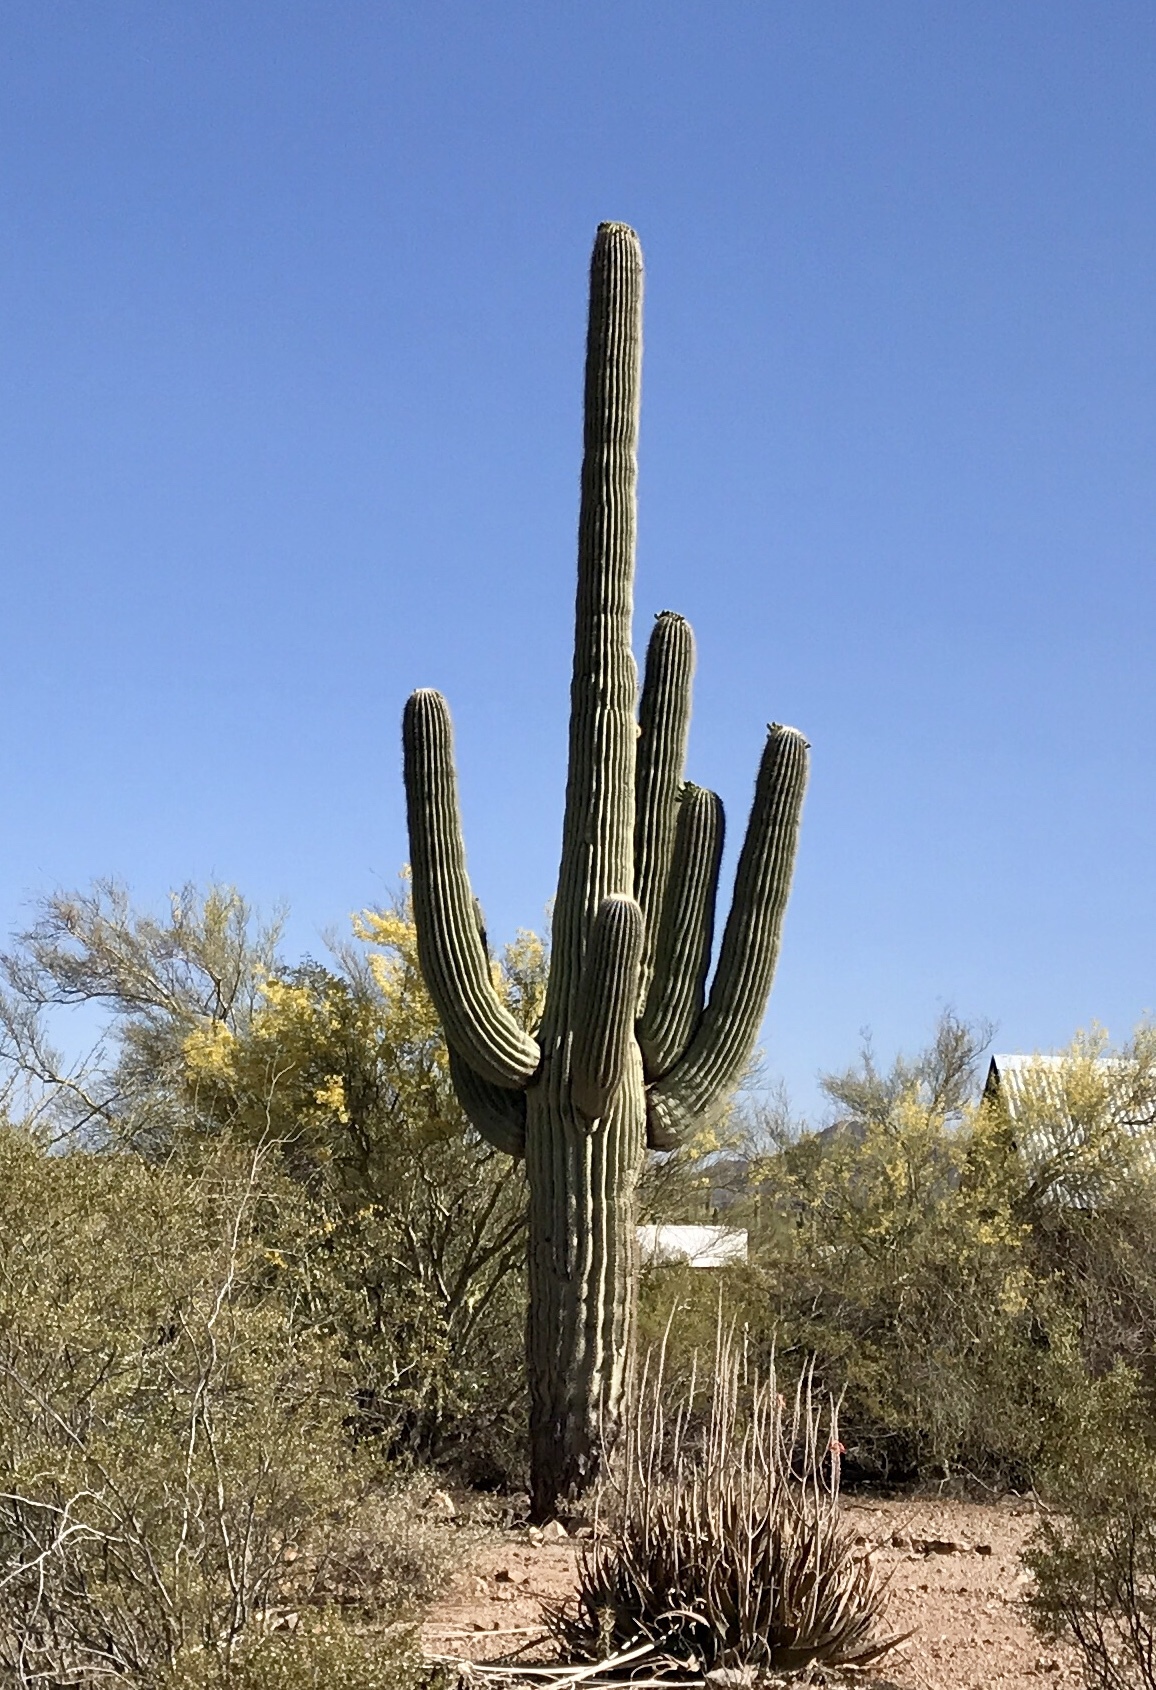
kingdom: Plantae
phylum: Tracheophyta
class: Magnoliopsida
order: Caryophyllales
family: Cactaceae
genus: Carnegiea
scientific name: Carnegiea gigantea
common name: Saguaro
